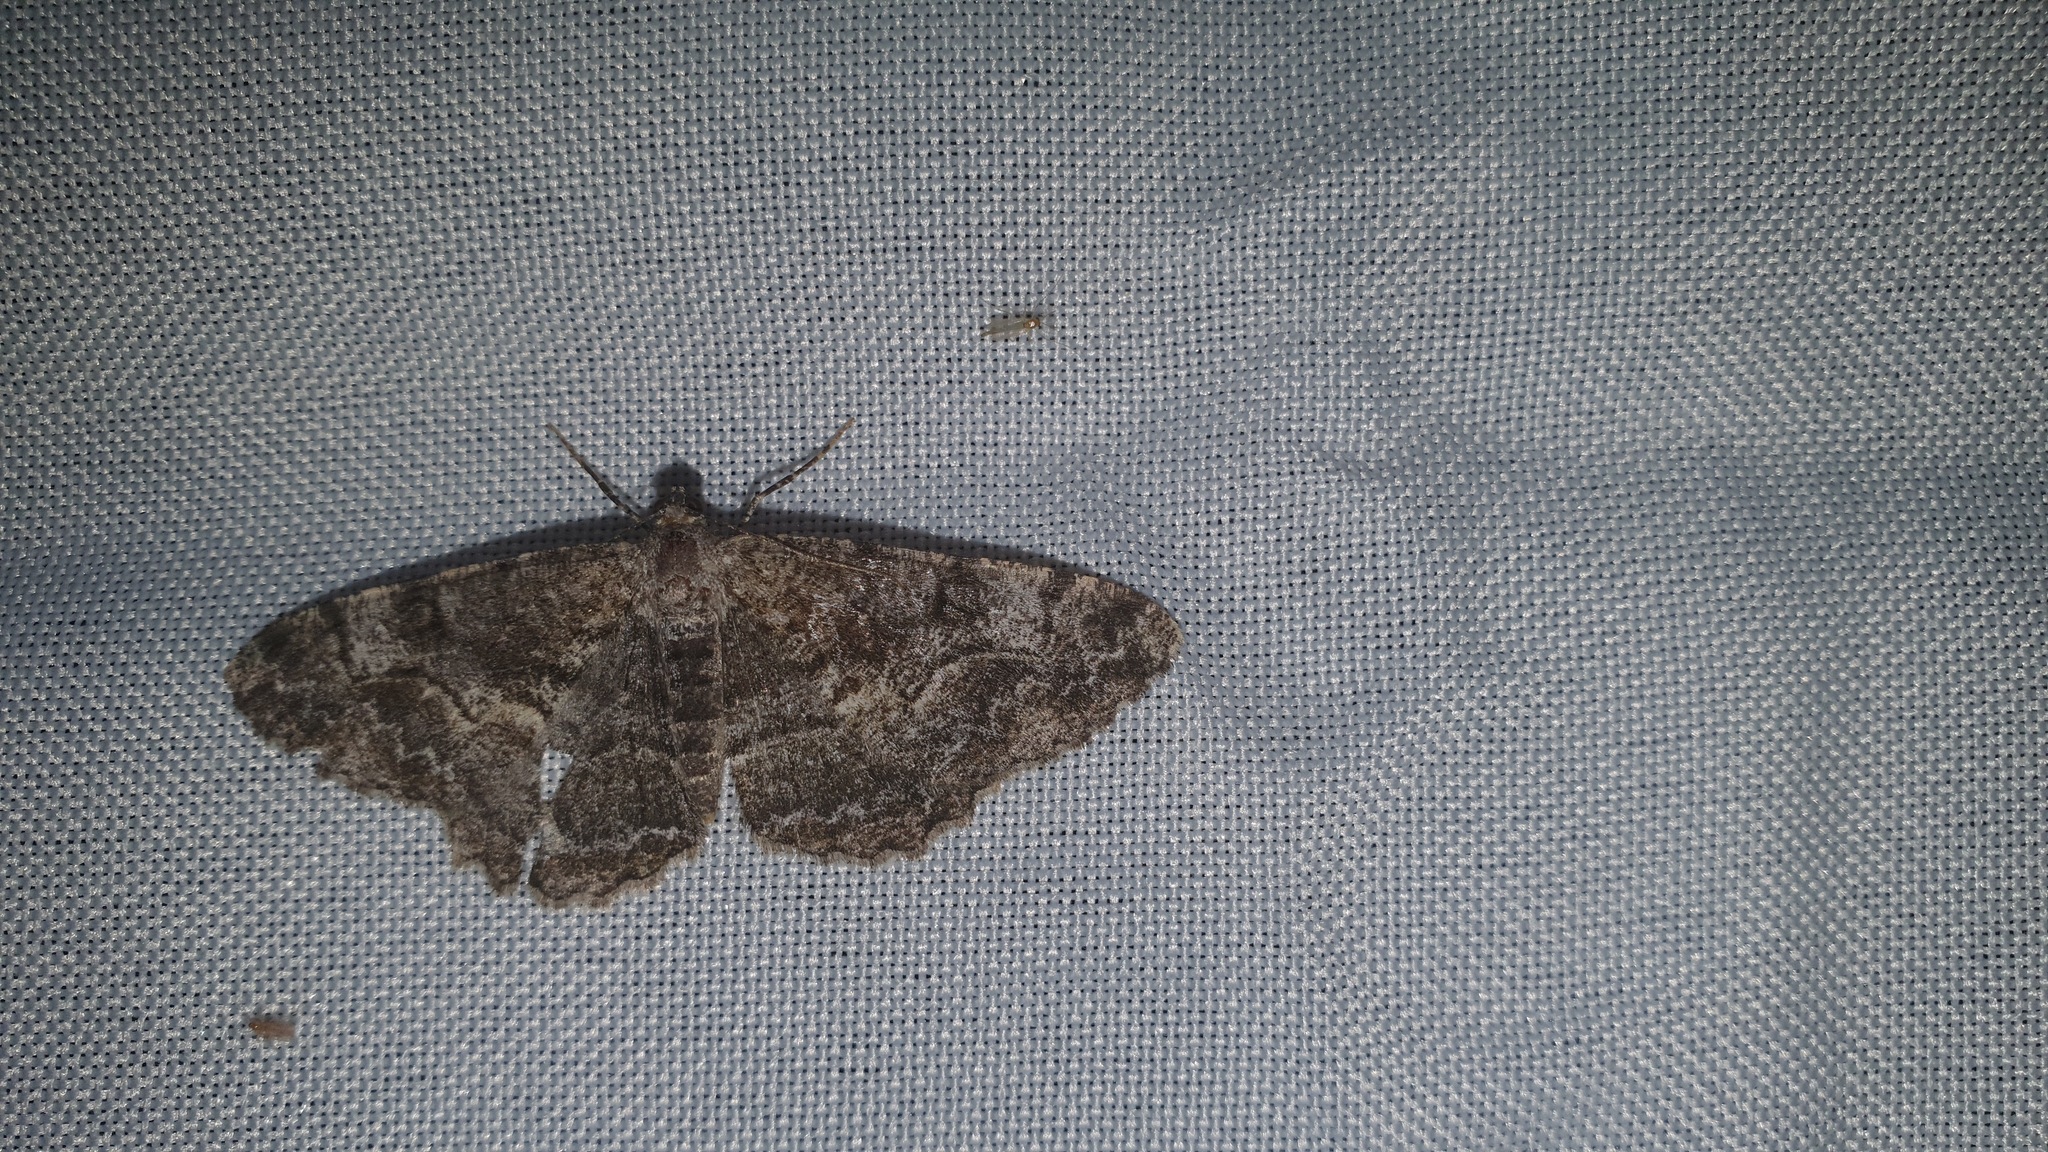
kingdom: Animalia
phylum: Arthropoda
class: Insecta
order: Lepidoptera
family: Geometridae
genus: Alcis
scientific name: Alcis repandata
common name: Mottled beauty
